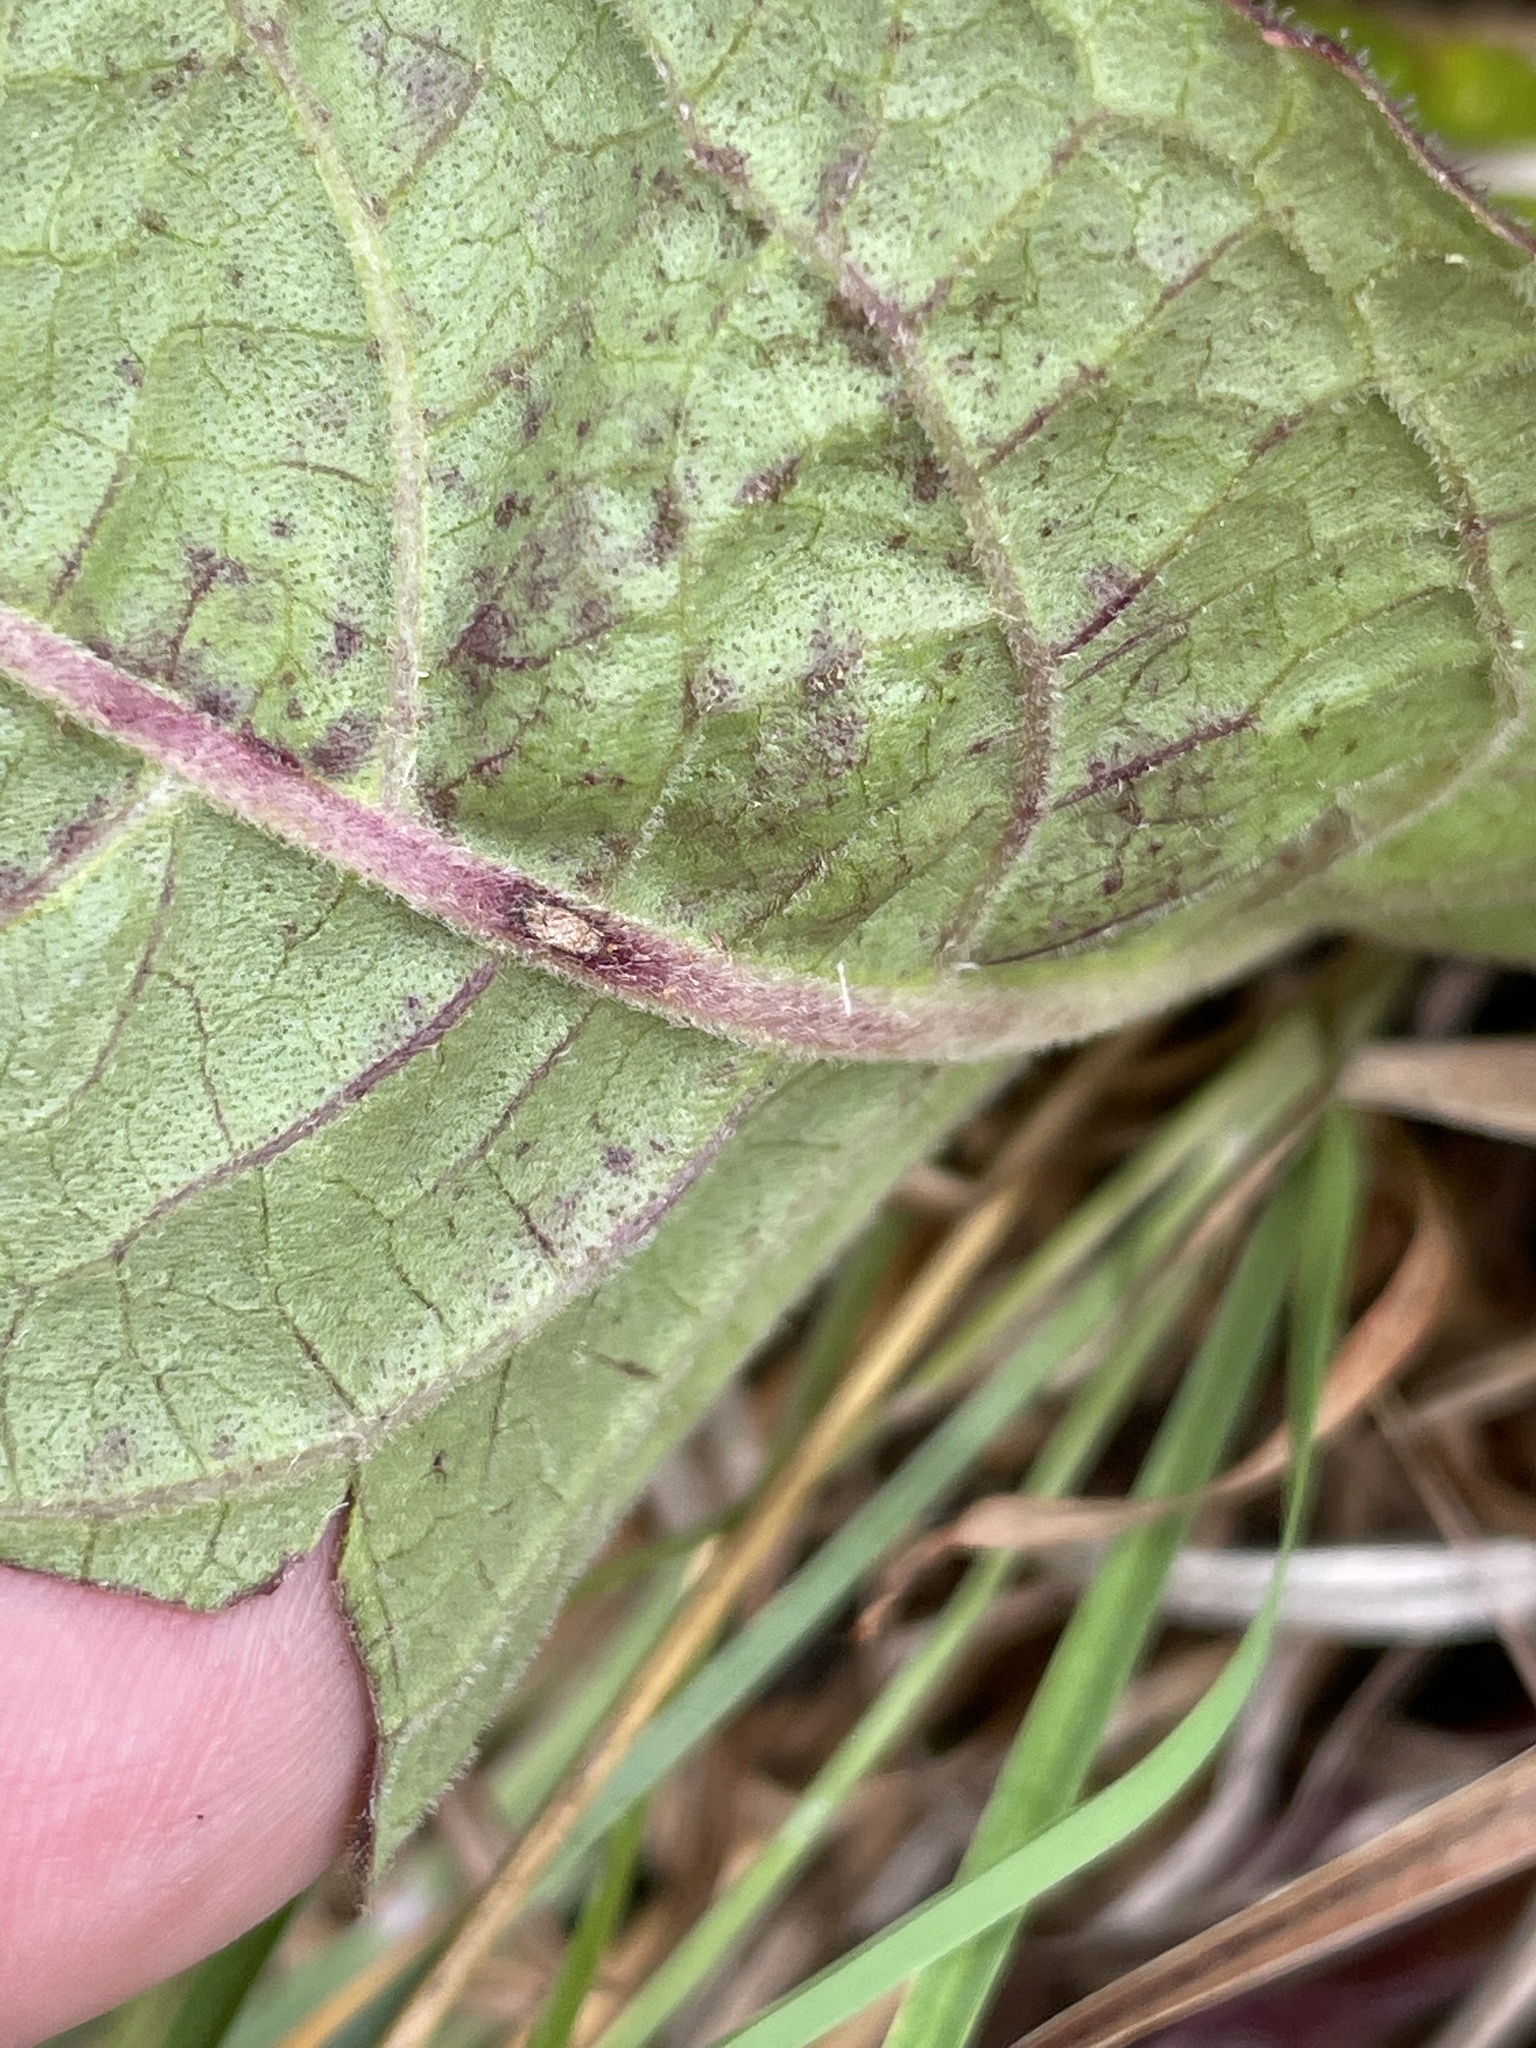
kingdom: Plantae
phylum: Tracheophyta
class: Magnoliopsida
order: Asterales
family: Asteraceae
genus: Vernonia
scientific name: Vernonia acaulis
